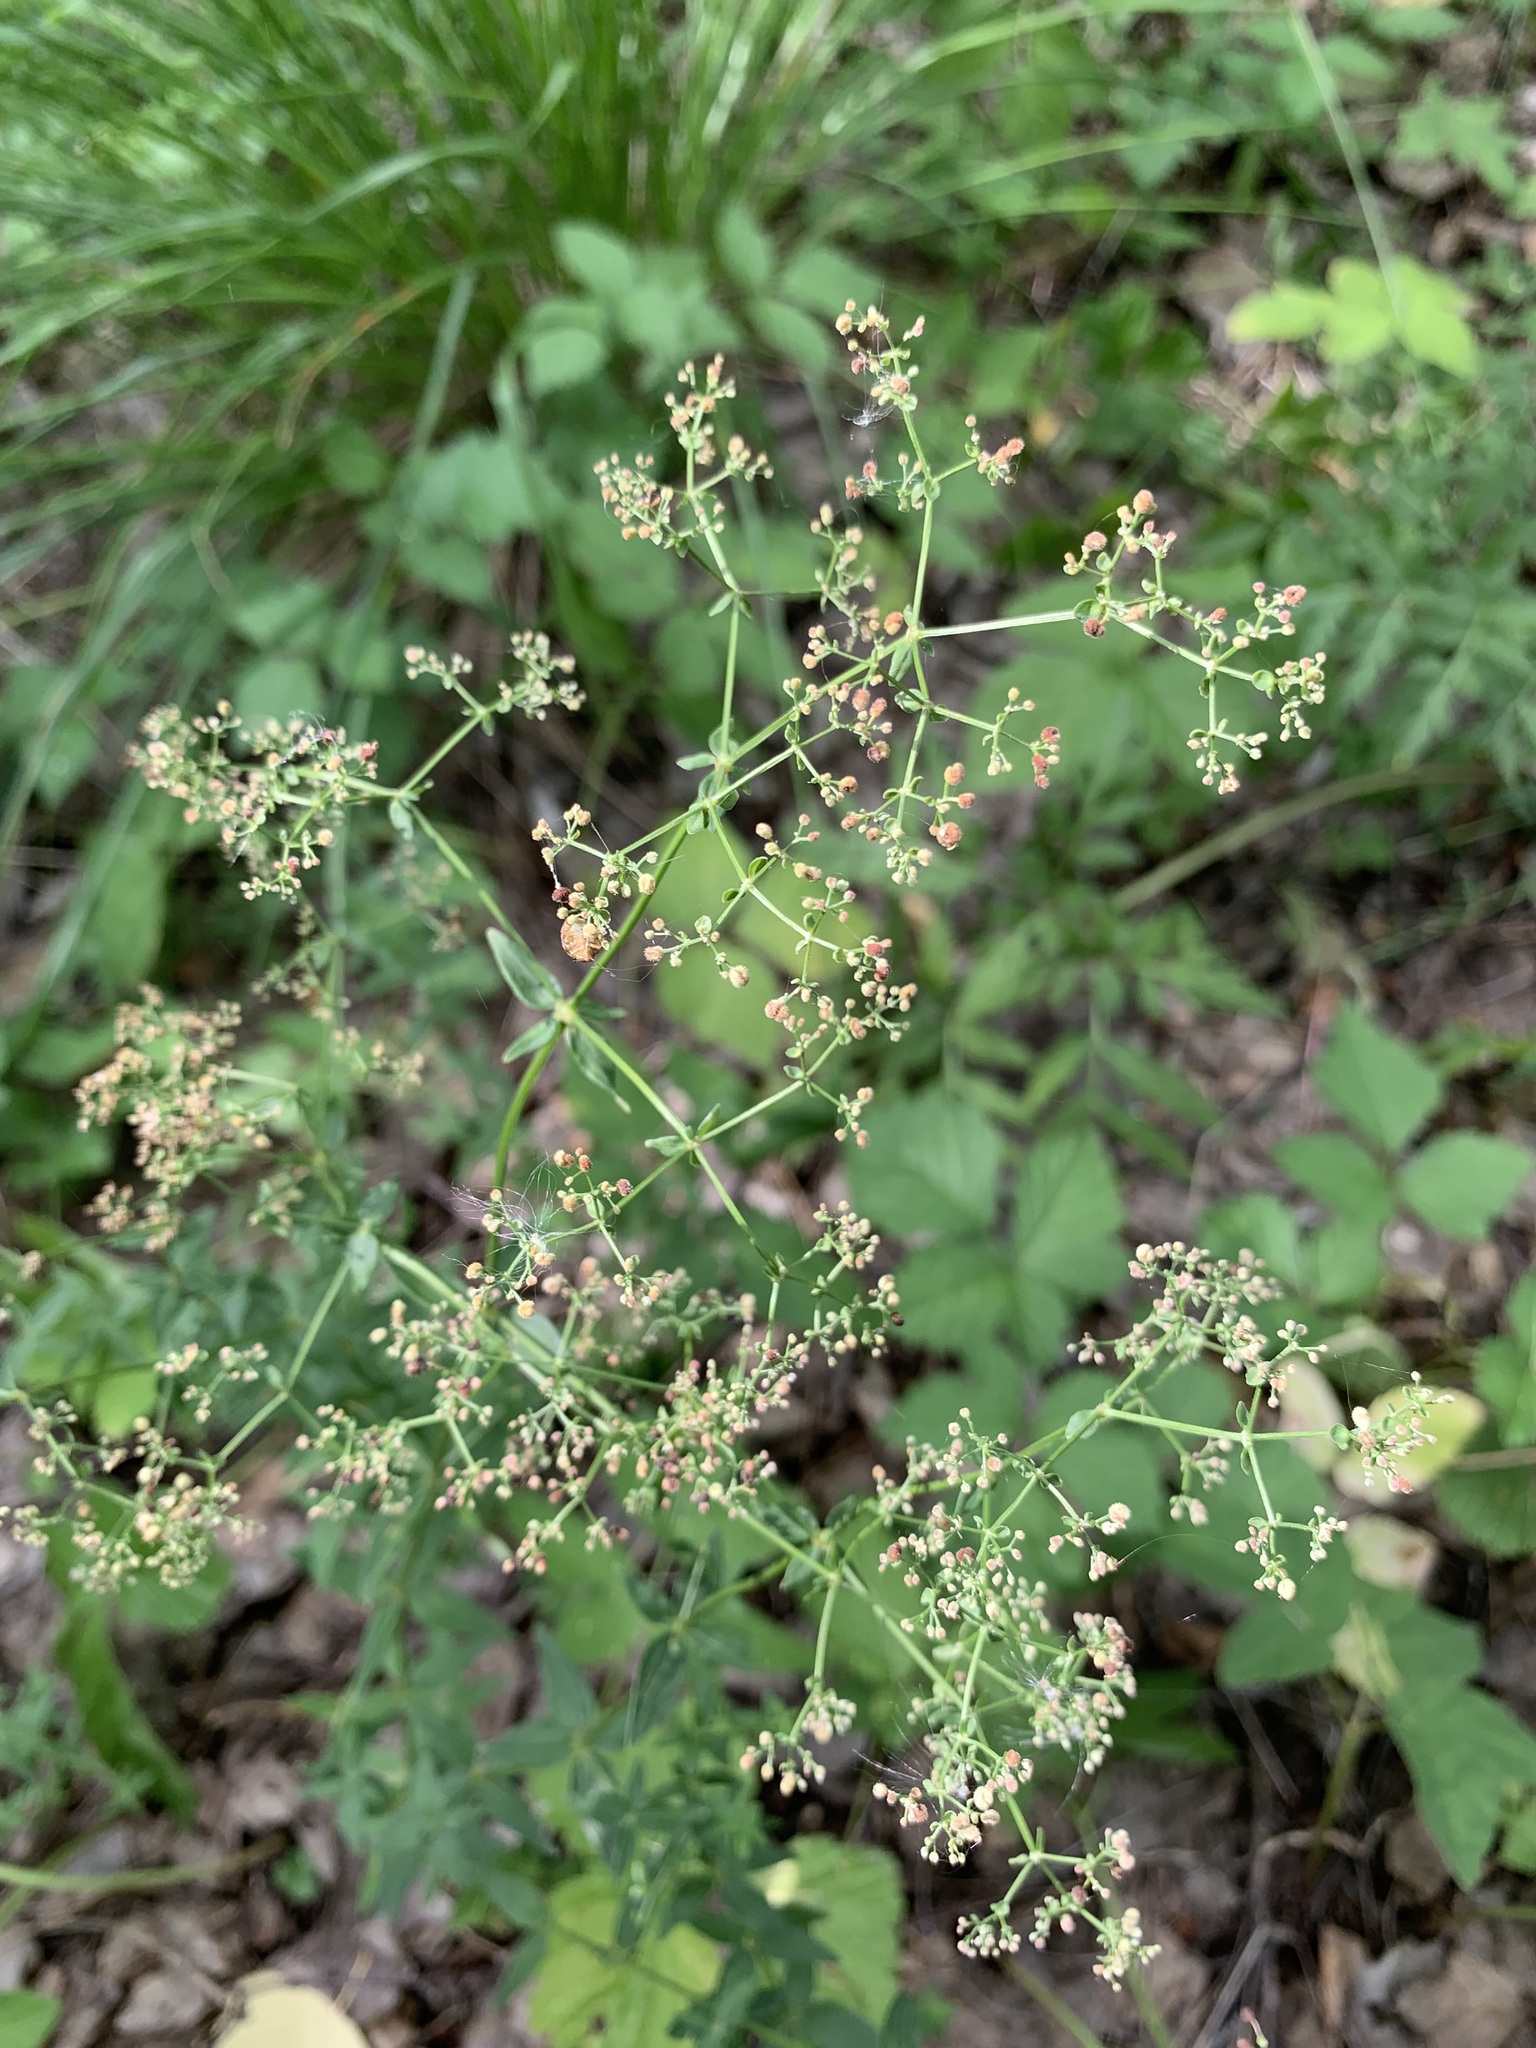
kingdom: Plantae
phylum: Tracheophyta
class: Magnoliopsida
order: Gentianales
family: Rubiaceae
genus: Galium
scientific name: Galium boreale
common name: Northern bedstraw
